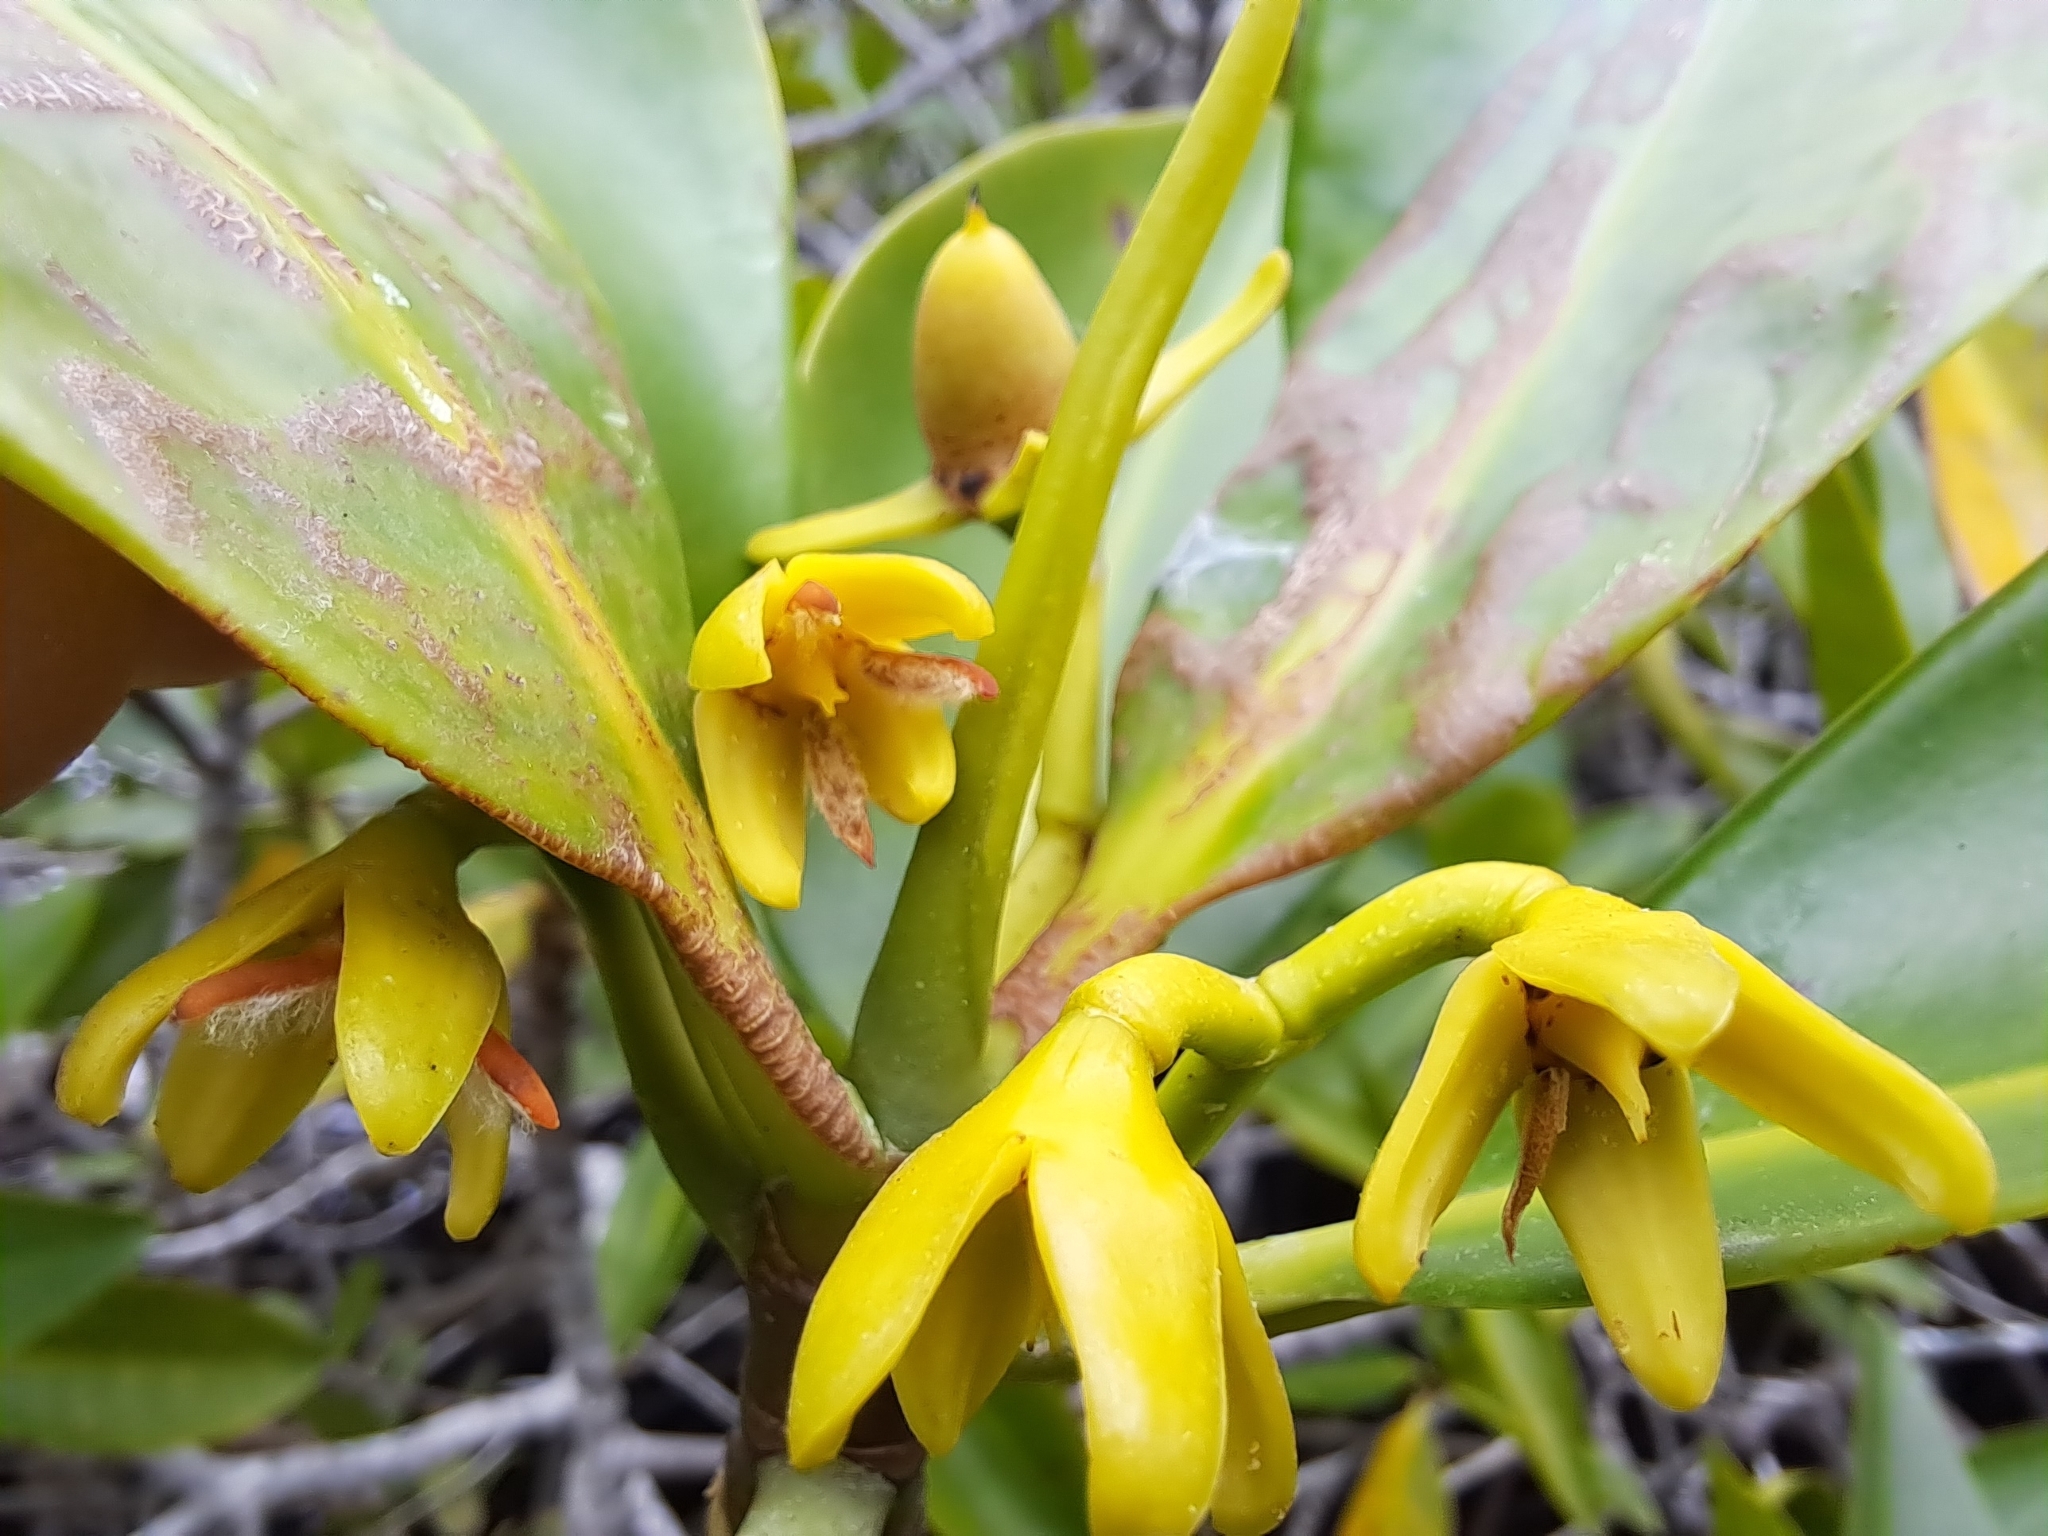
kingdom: Plantae
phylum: Tracheophyta
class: Magnoliopsida
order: Malpighiales
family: Rhizophoraceae
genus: Rhizophora
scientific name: Rhizophora mangle
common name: Red mangrove
